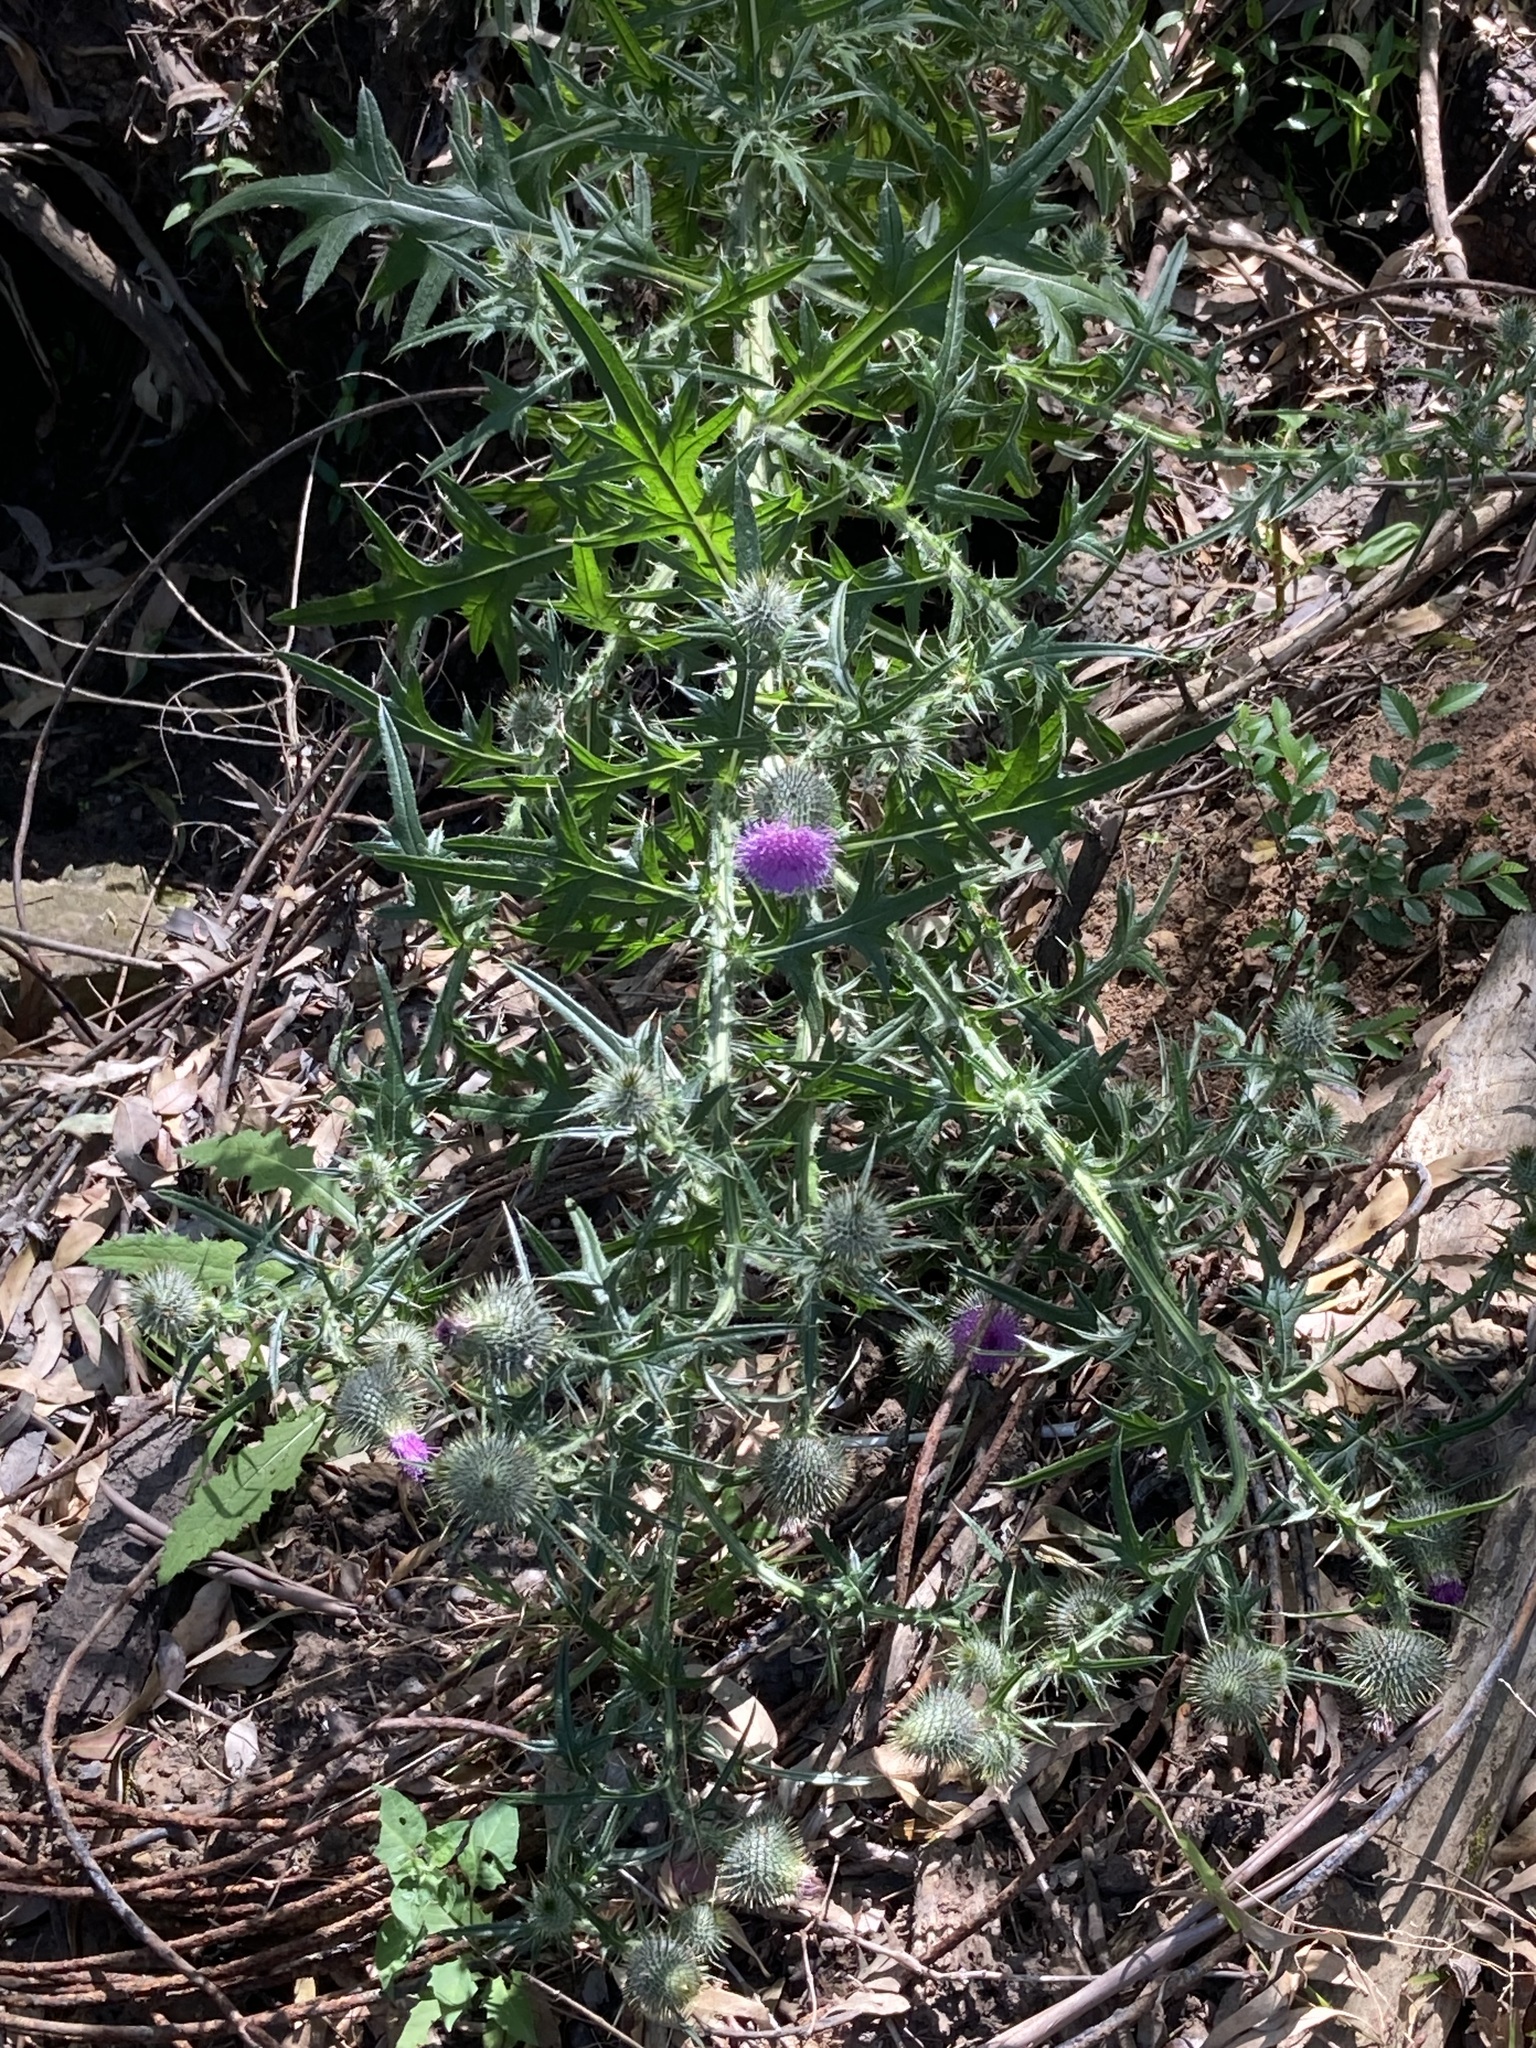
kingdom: Plantae
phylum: Tracheophyta
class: Magnoliopsida
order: Asterales
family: Asteraceae
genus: Cirsium
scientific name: Cirsium vulgare
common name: Bull thistle
